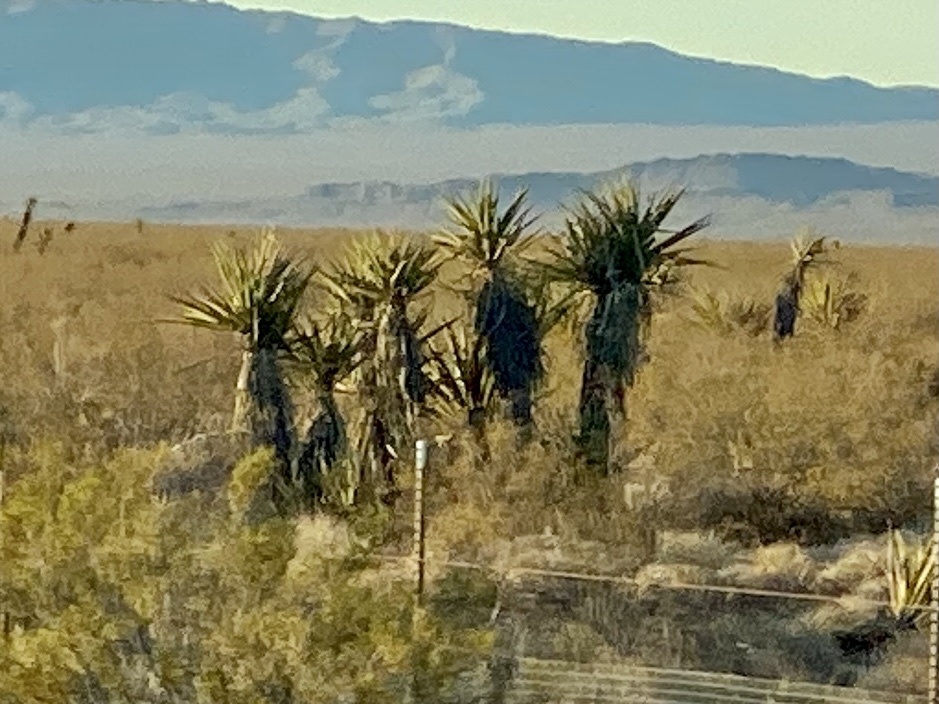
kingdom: Plantae
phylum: Tracheophyta
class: Liliopsida
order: Asparagales
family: Asparagaceae
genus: Yucca
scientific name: Yucca schidigera
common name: Mojave yucca
